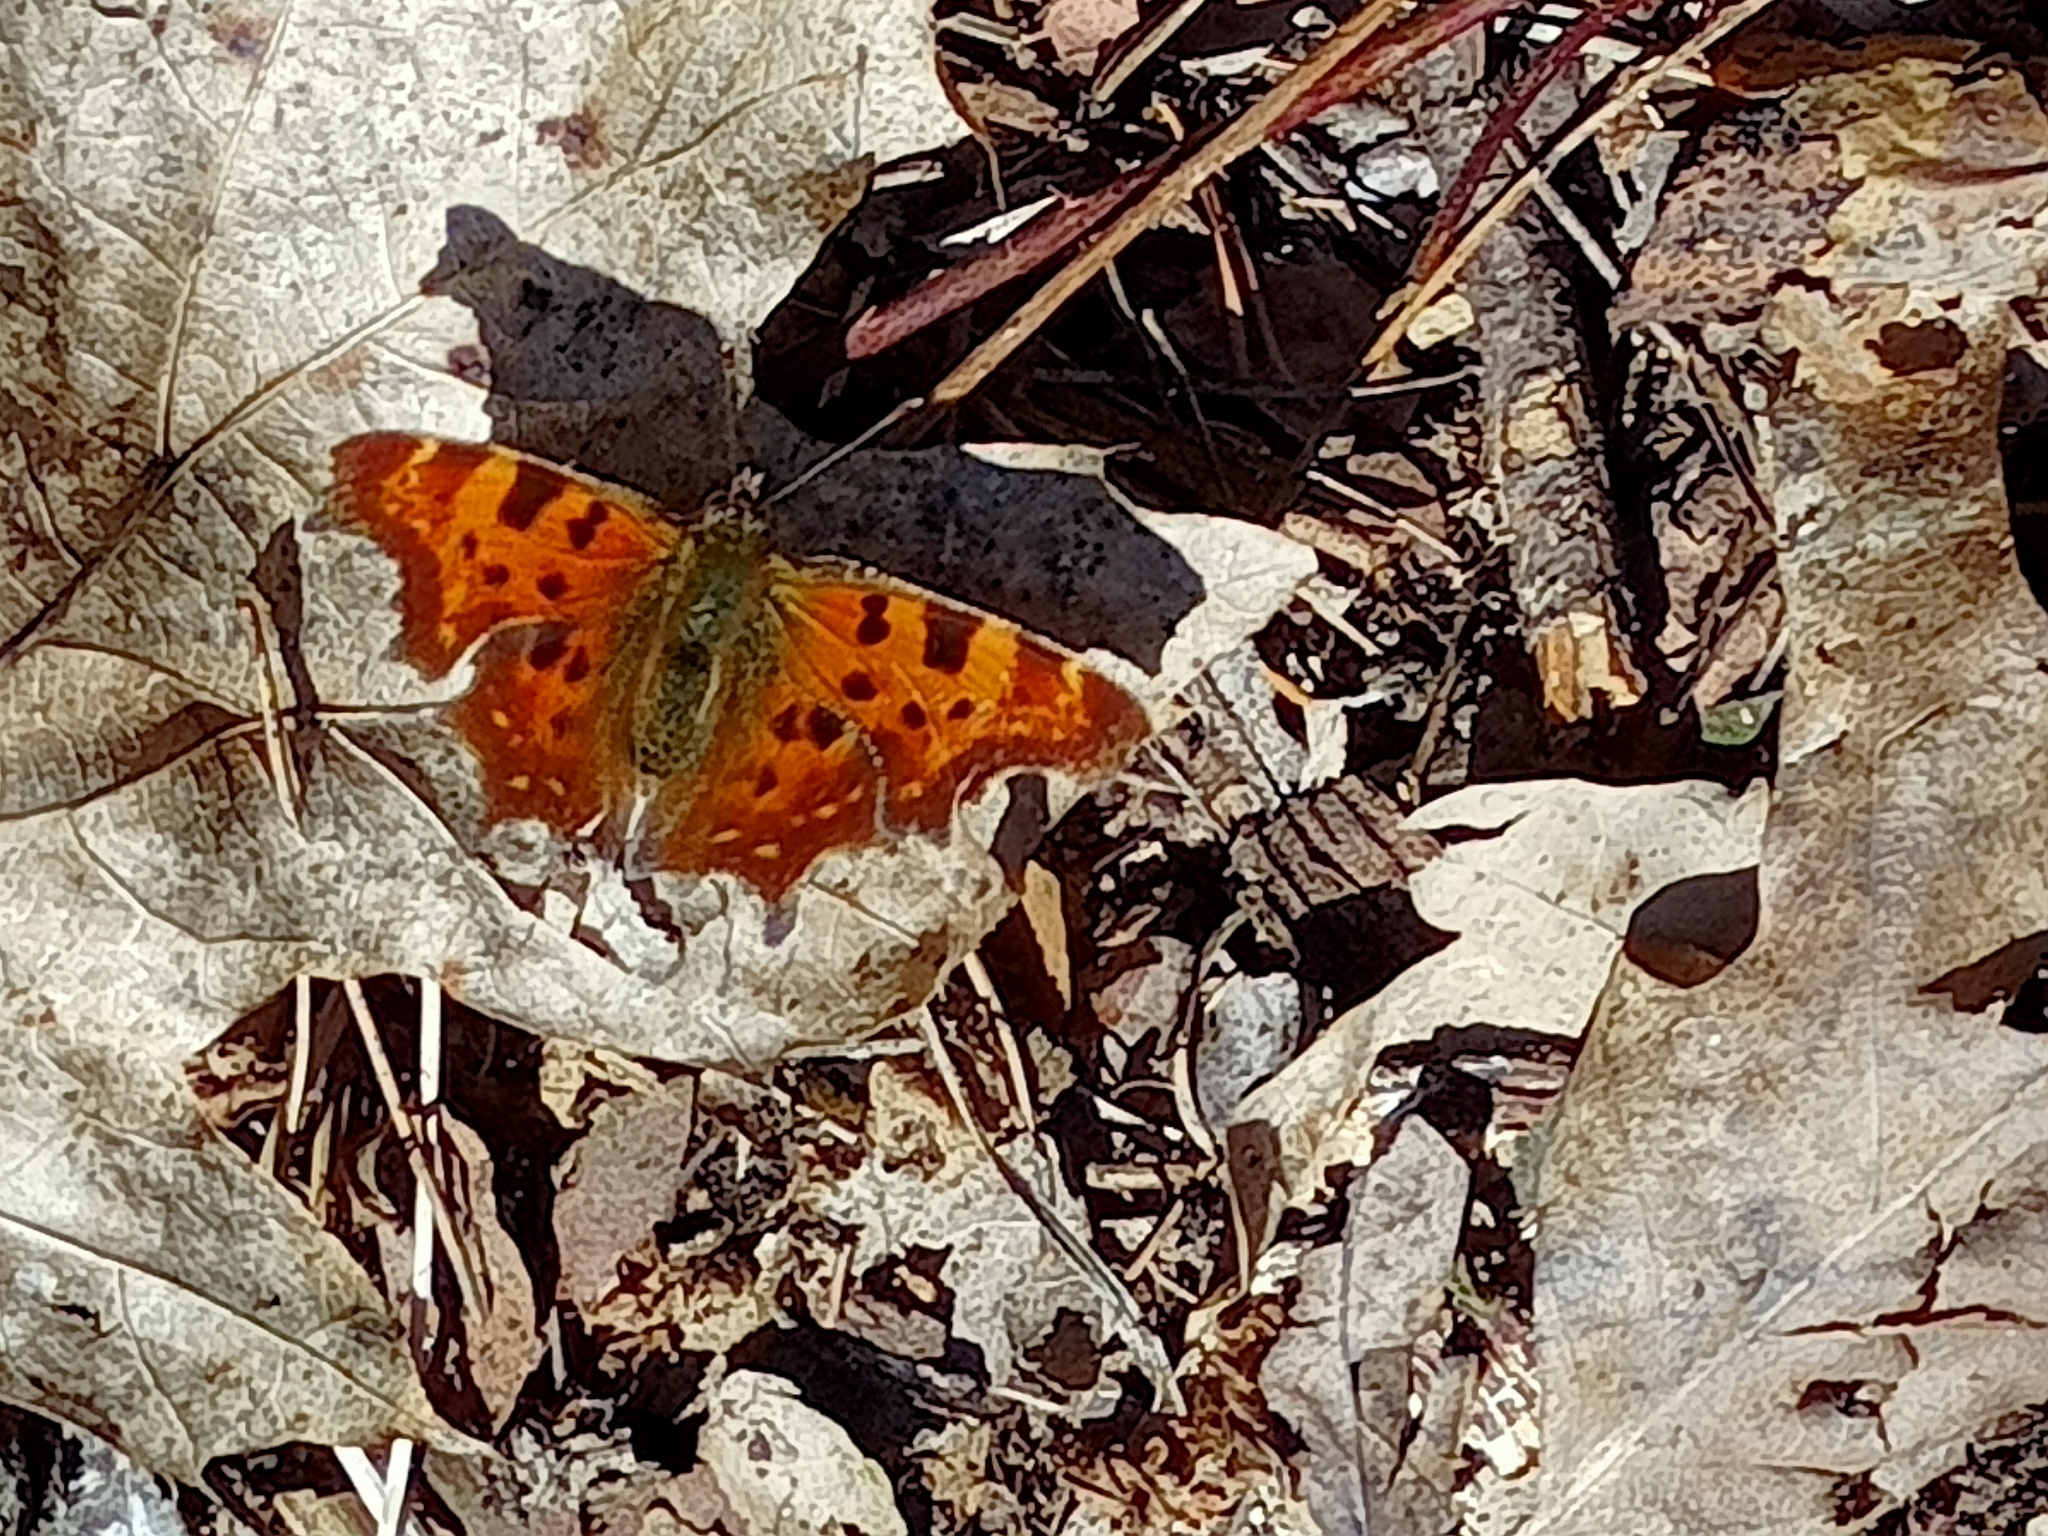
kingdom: Animalia
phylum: Arthropoda
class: Insecta
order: Lepidoptera
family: Nymphalidae
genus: Polygonia
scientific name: Polygonia c-album
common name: Comma
